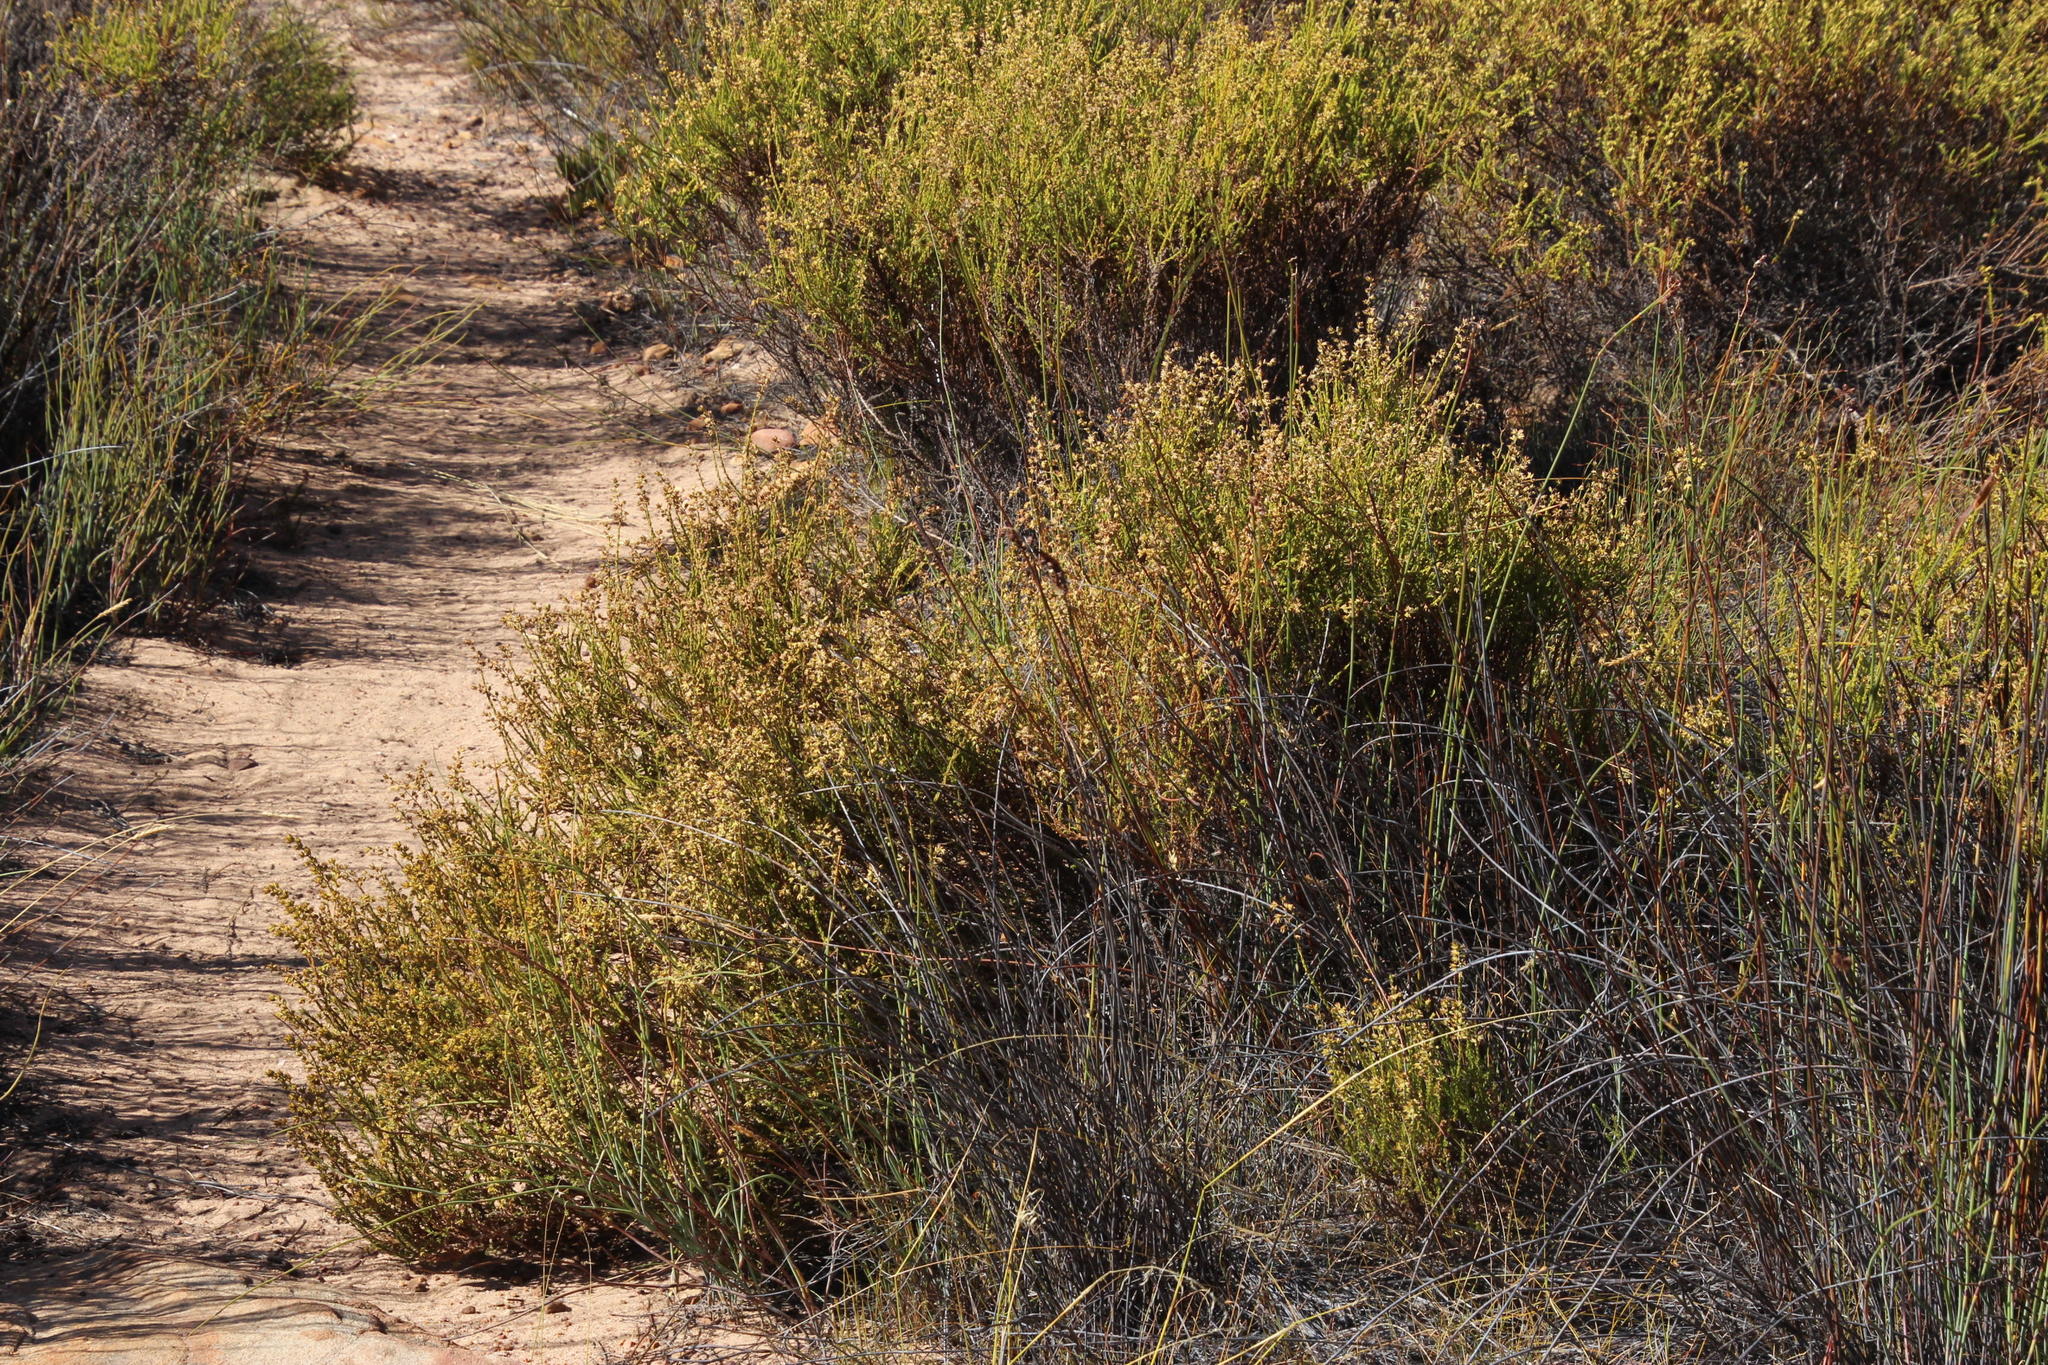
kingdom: Plantae
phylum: Tracheophyta
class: Magnoliopsida
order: Asterales
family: Asteraceae
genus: Myrovernix
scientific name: Myrovernix scaber
